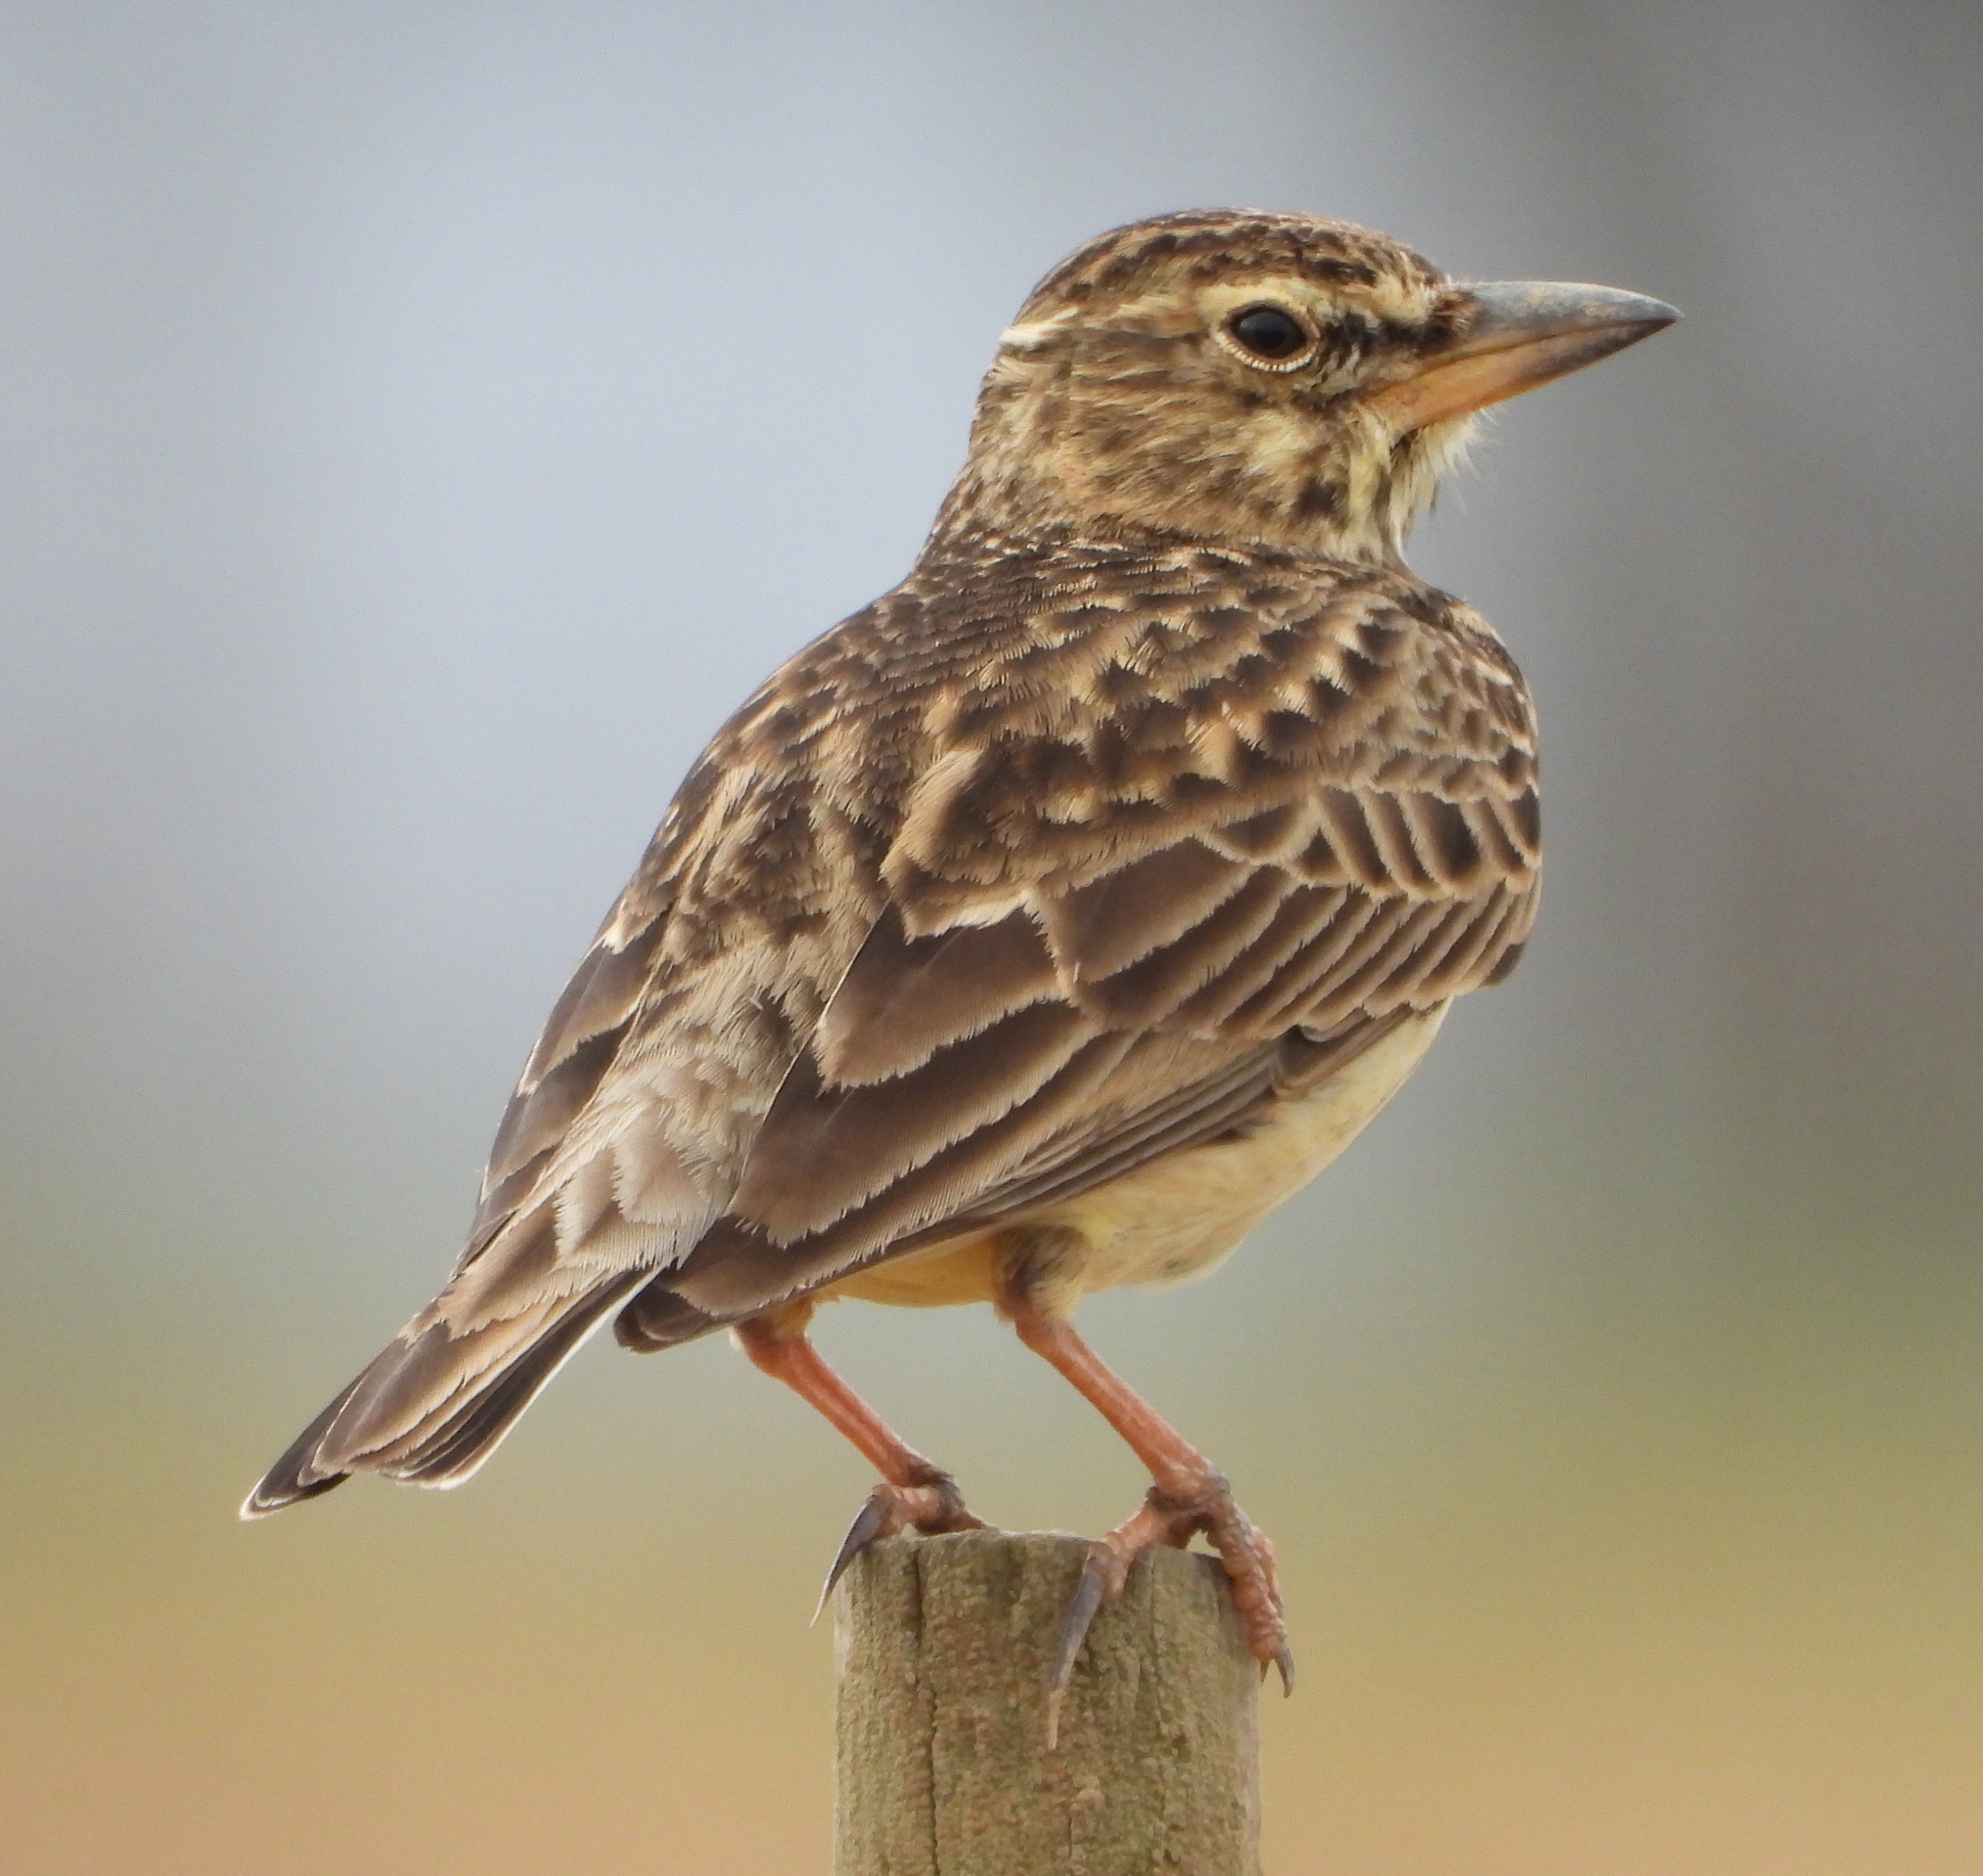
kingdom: Animalia
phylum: Chordata
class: Aves
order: Passeriformes
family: Alaudidae
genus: Galerida
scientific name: Galerida magnirostris
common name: Large-billed lark
